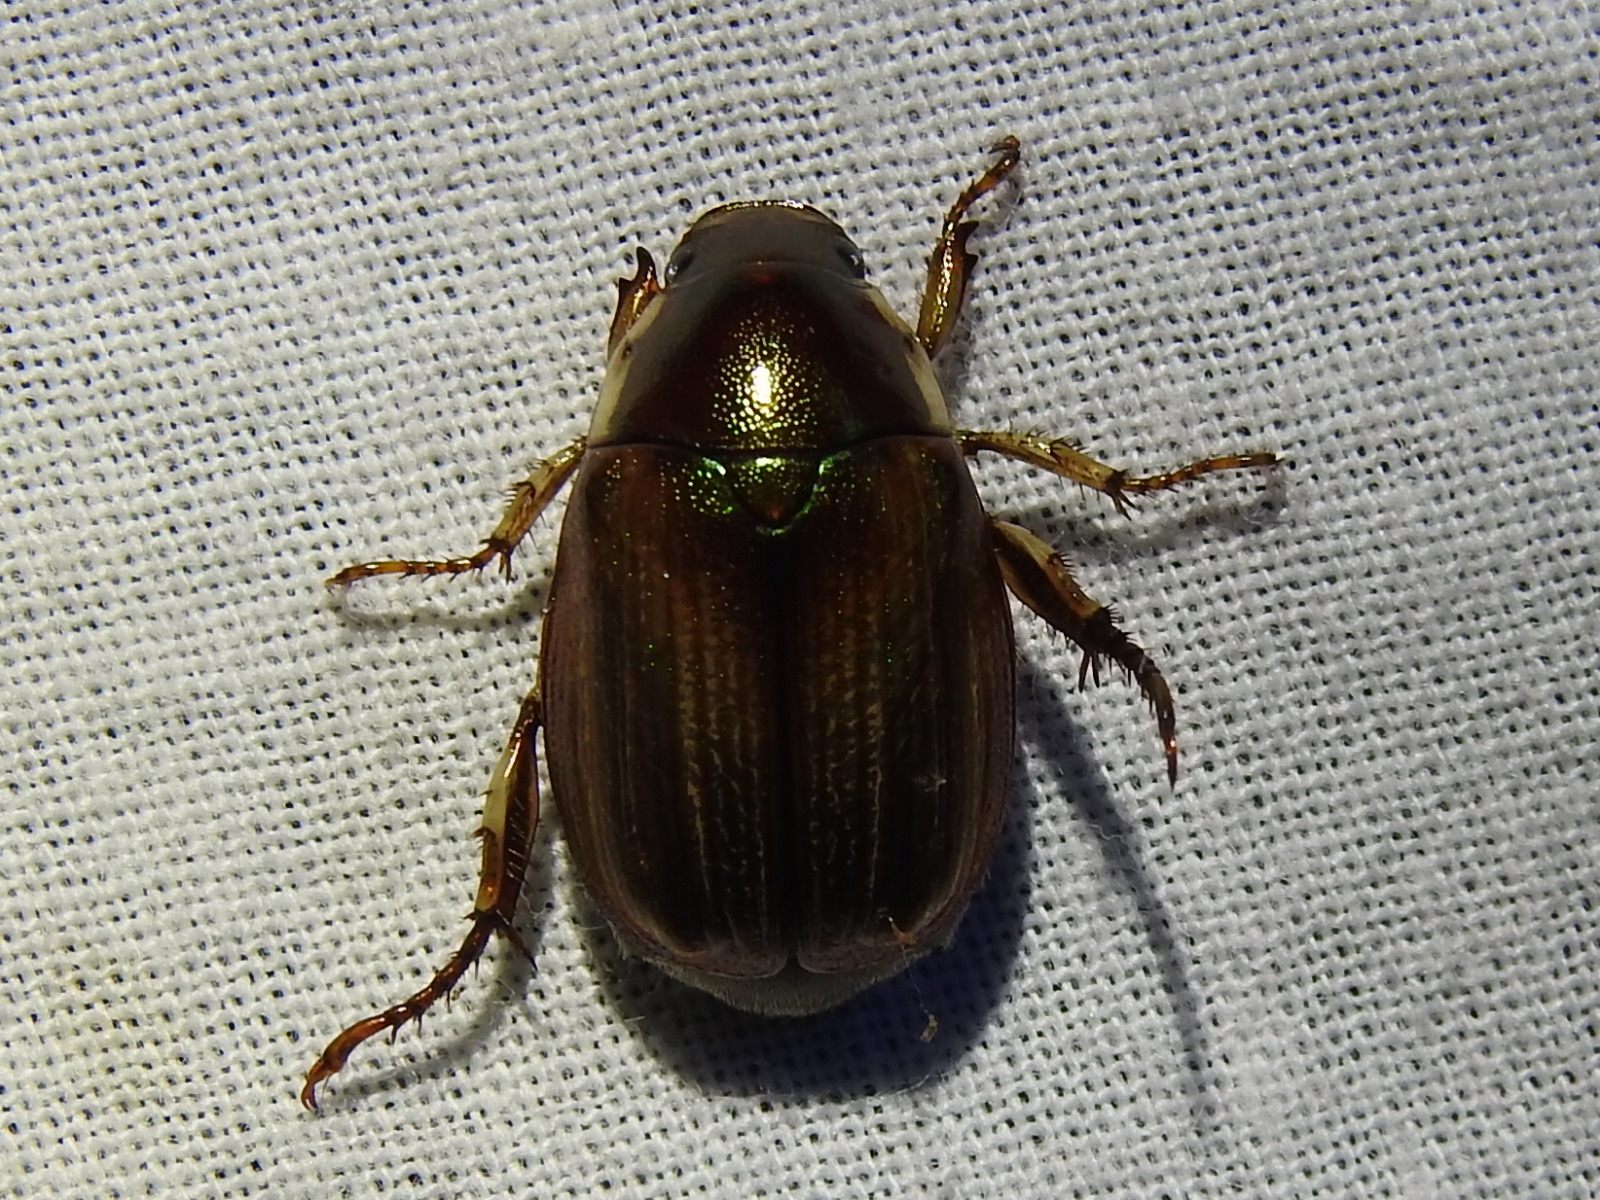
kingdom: Animalia
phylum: Arthropoda
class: Insecta
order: Coleoptera
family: Scarabaeidae
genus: Callistethus
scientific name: Callistethus marginatus
